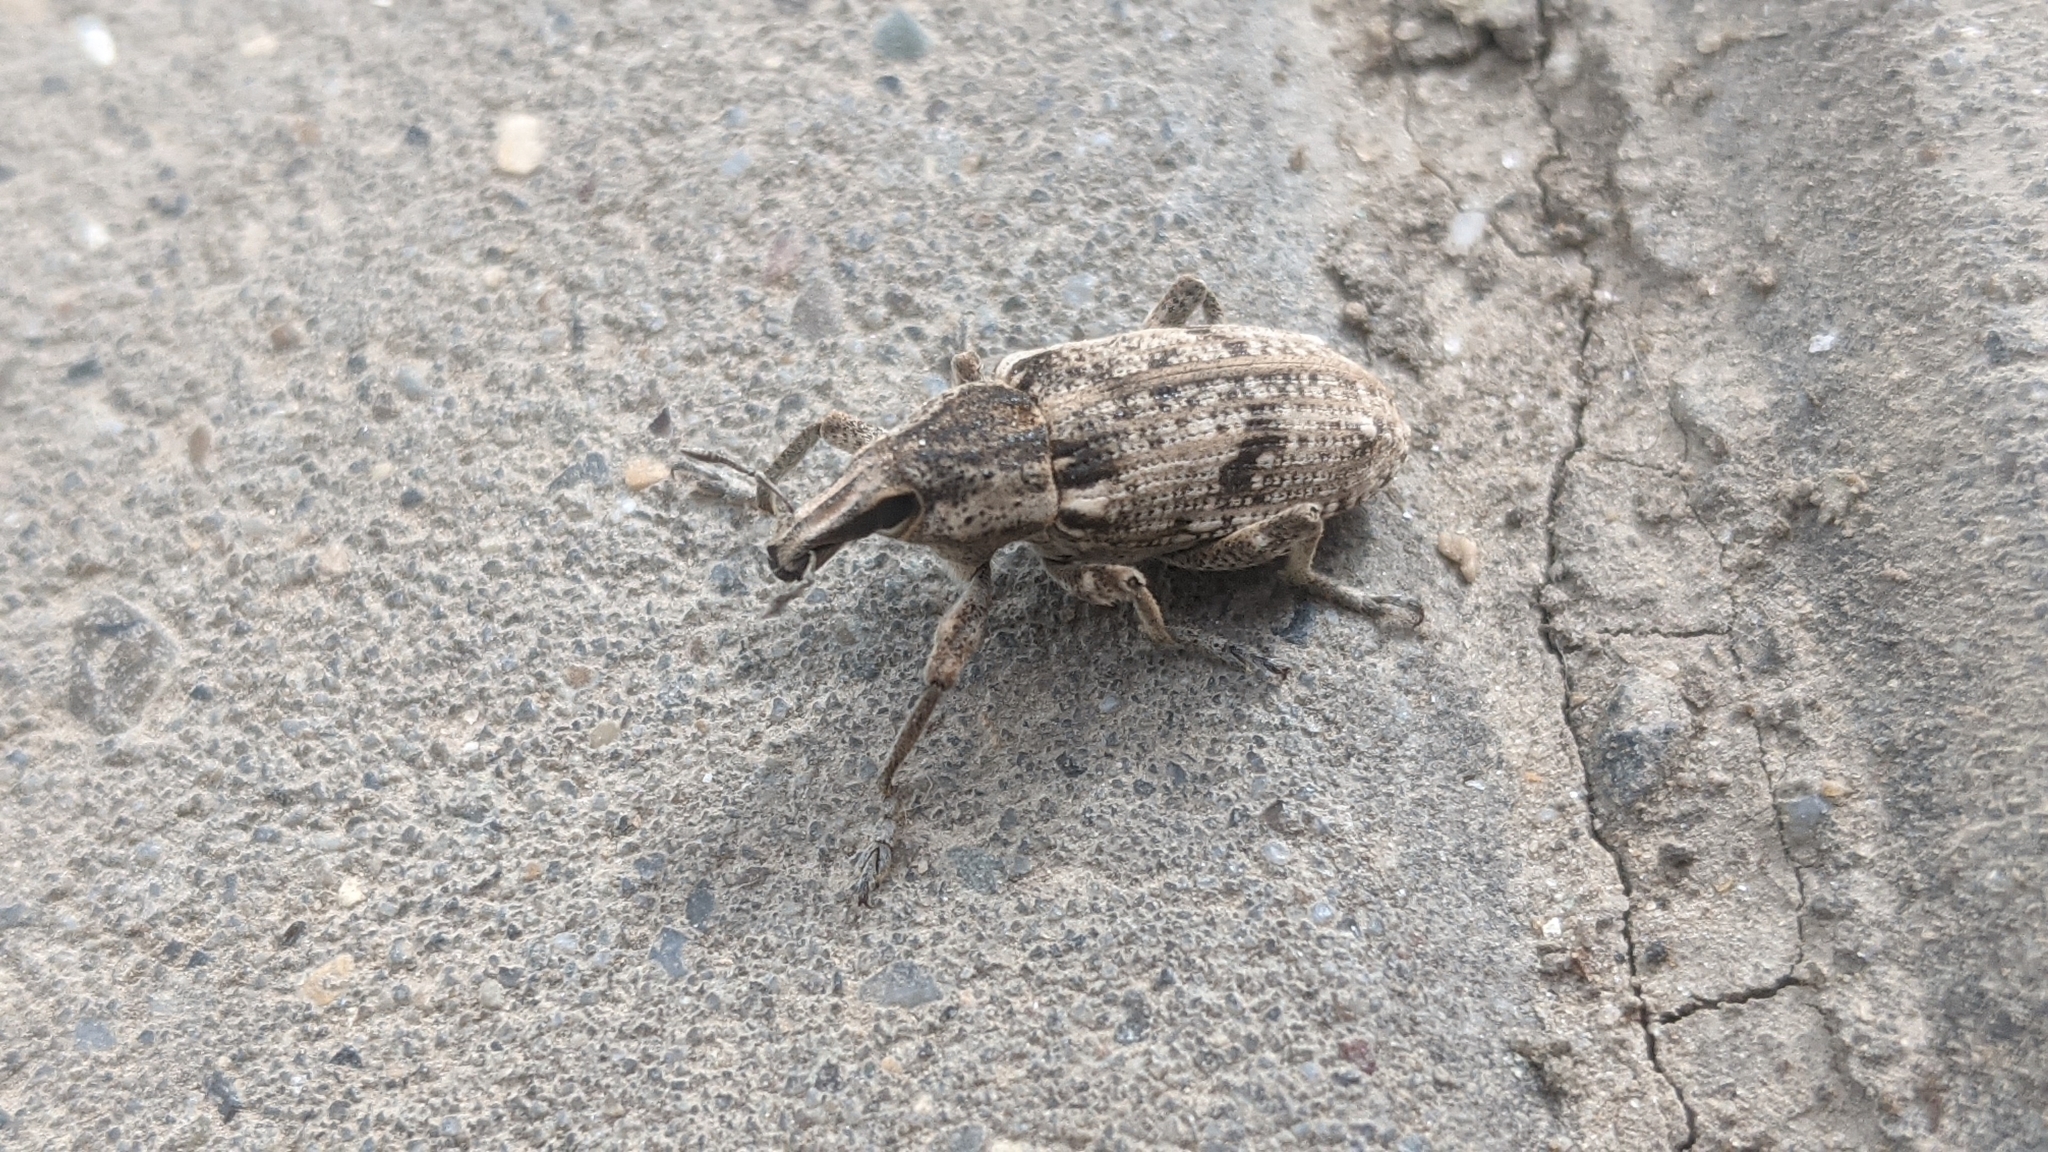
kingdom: Animalia
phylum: Arthropoda
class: Insecta
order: Coleoptera
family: Curculionidae
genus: Asproparthenis
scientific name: Asproparthenis punctiventris
